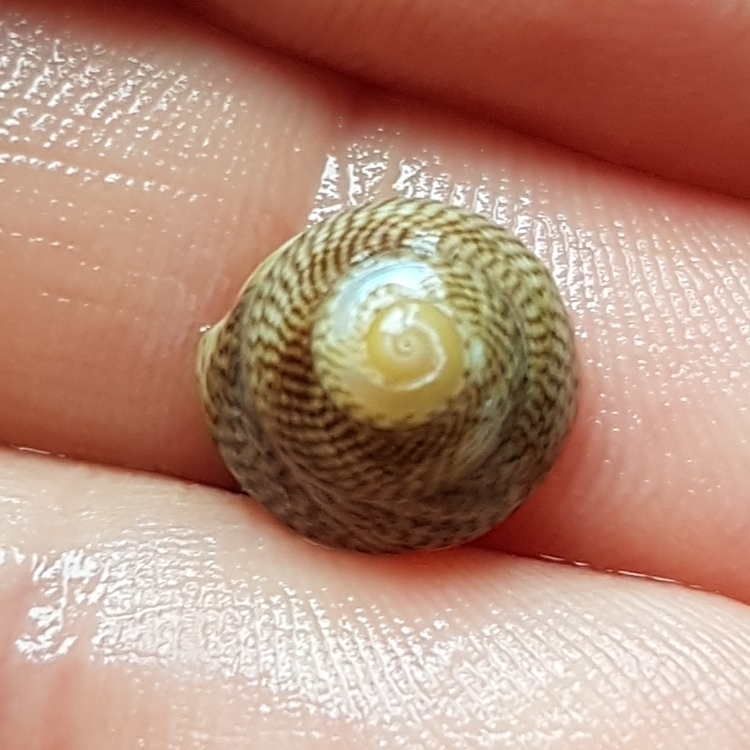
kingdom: Animalia
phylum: Mollusca
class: Gastropoda
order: Trochida
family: Trochidae
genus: Steromphala
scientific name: Steromphala cineraria
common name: Grey top shell
